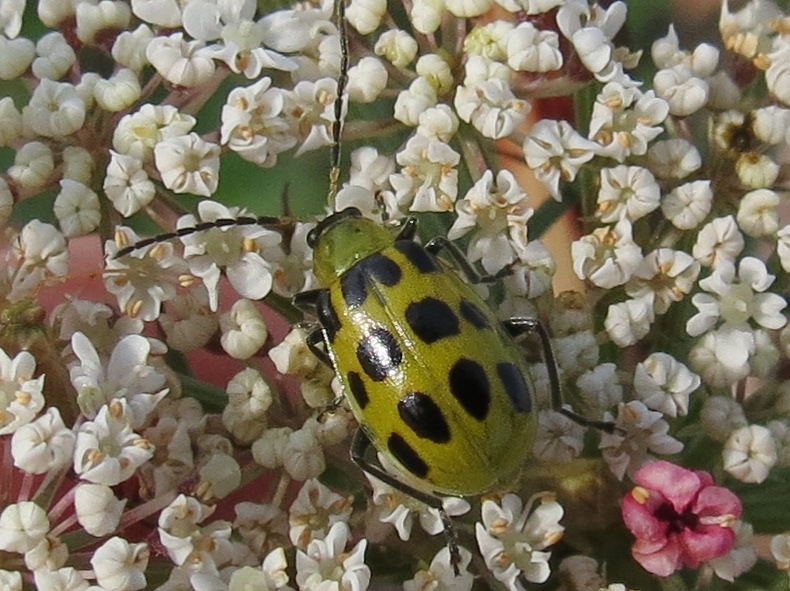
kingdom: Animalia
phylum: Arthropoda
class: Insecta
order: Coleoptera
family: Chrysomelidae
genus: Diabrotica
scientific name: Diabrotica undecimpunctata
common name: Spotted cucumber beetle
